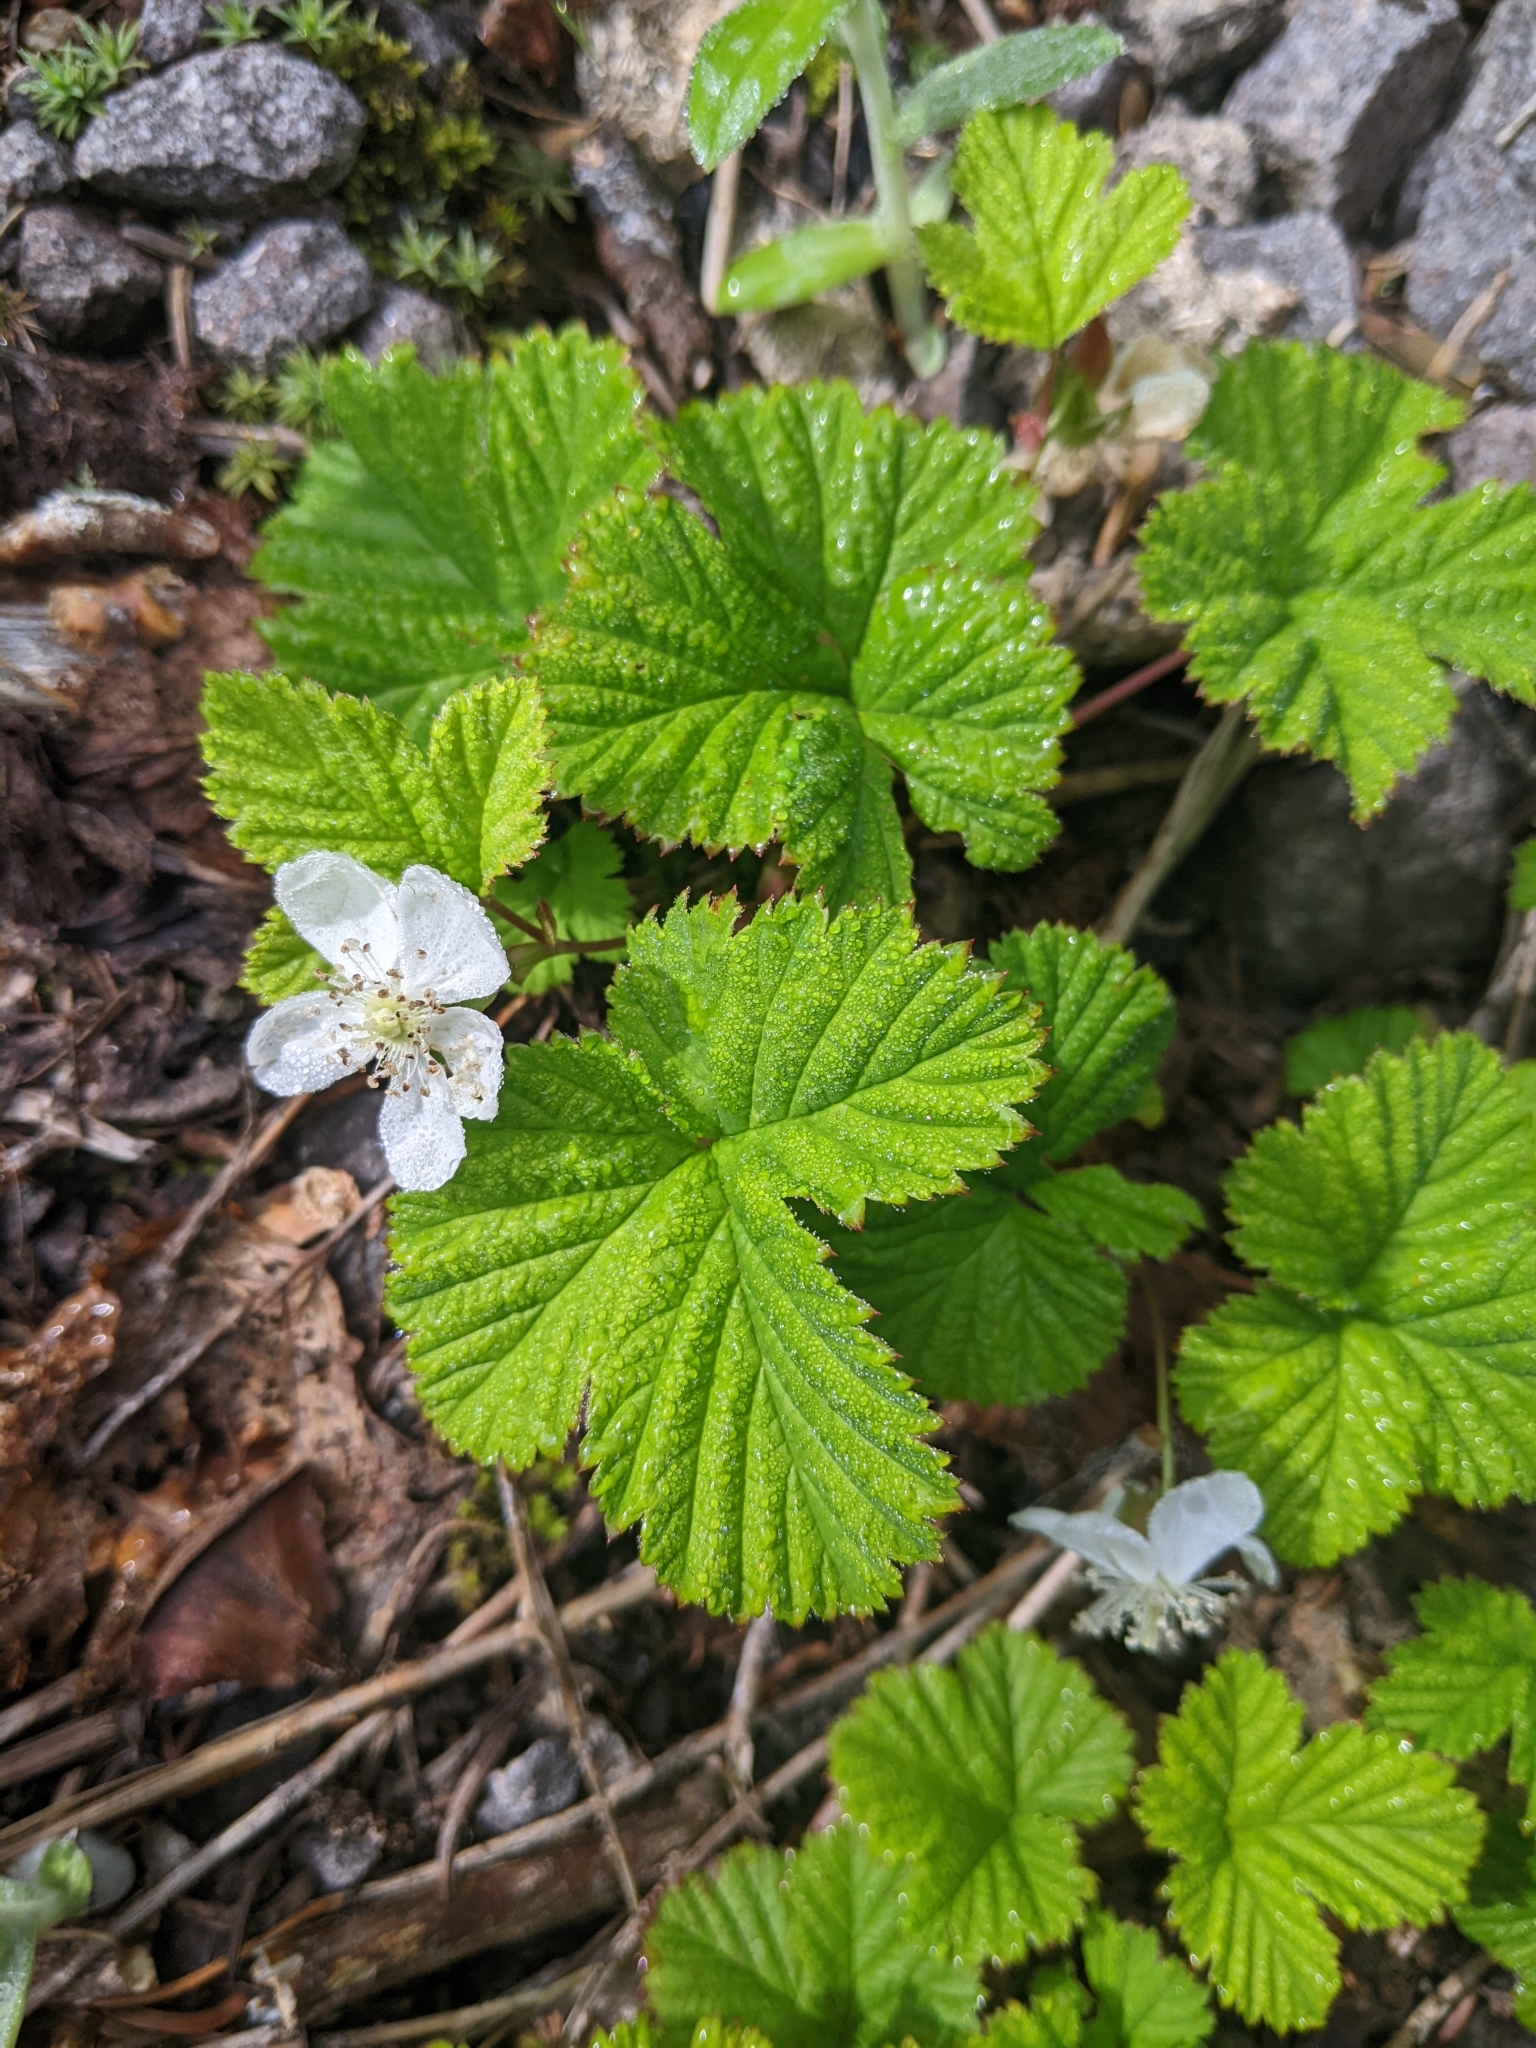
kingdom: Plantae
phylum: Tracheophyta
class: Magnoliopsida
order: Rosales
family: Rosaceae
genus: Rubus
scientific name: Rubus lasiococcus
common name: Dwarf bramble
